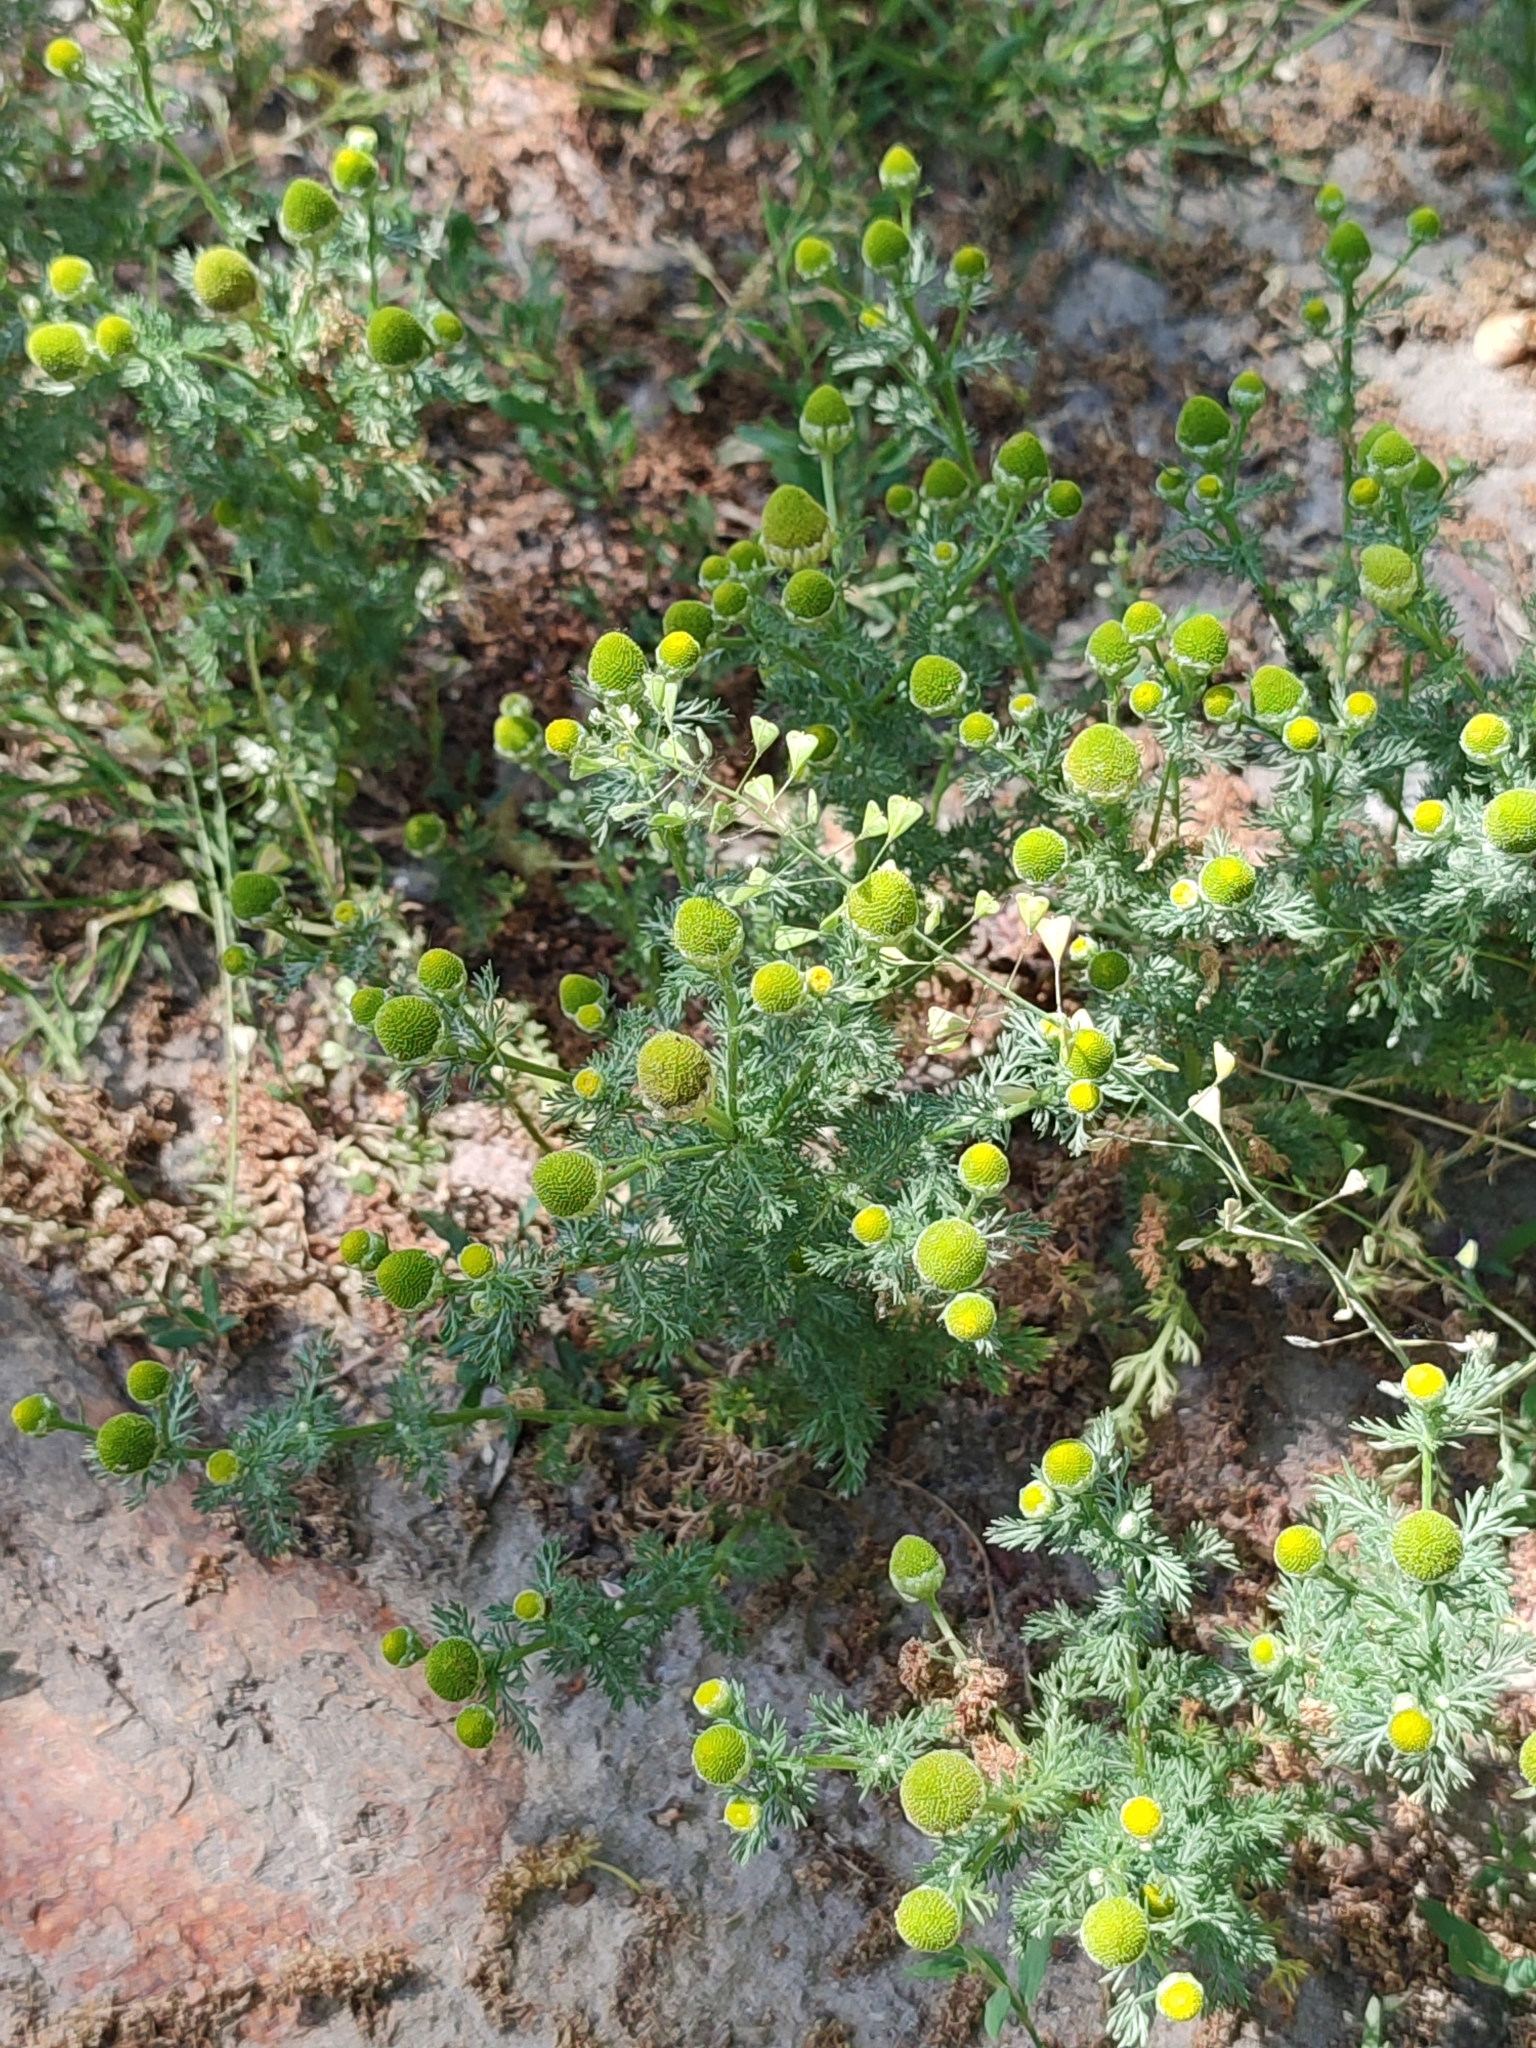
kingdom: Plantae
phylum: Tracheophyta
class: Magnoliopsida
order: Asterales
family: Asteraceae
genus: Matricaria
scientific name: Matricaria discoidea
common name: Disc mayweed
